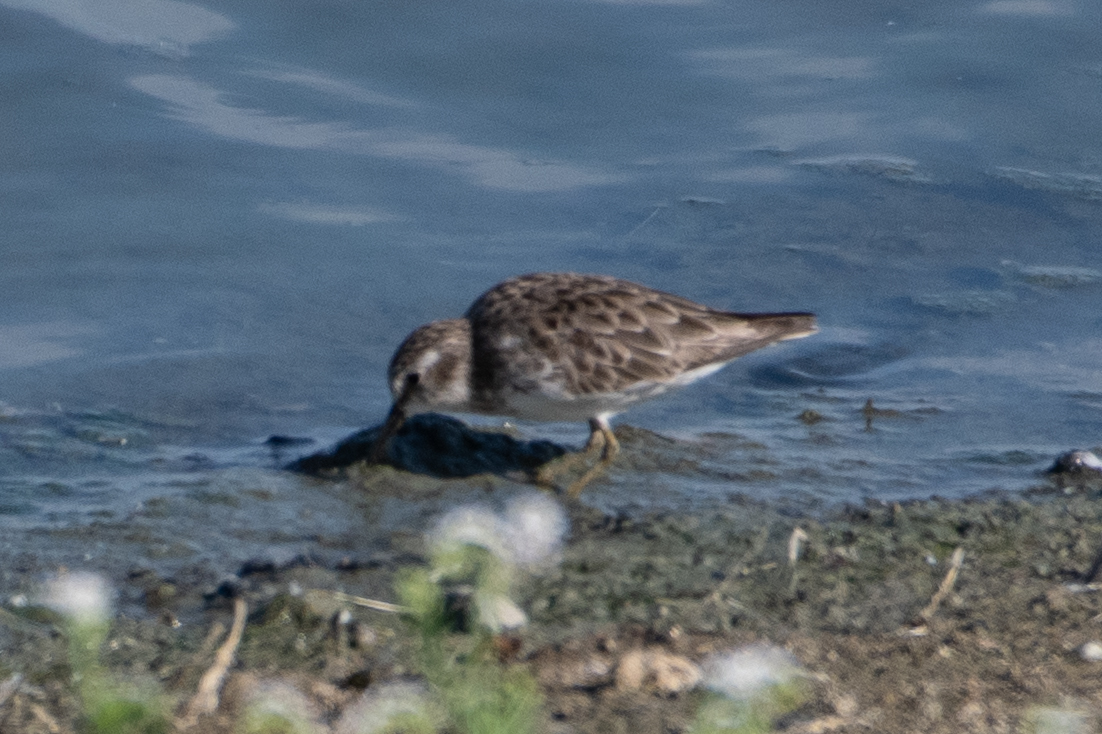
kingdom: Animalia
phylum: Chordata
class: Aves
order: Charadriiformes
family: Scolopacidae
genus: Calidris
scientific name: Calidris minutilla
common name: Least sandpiper
